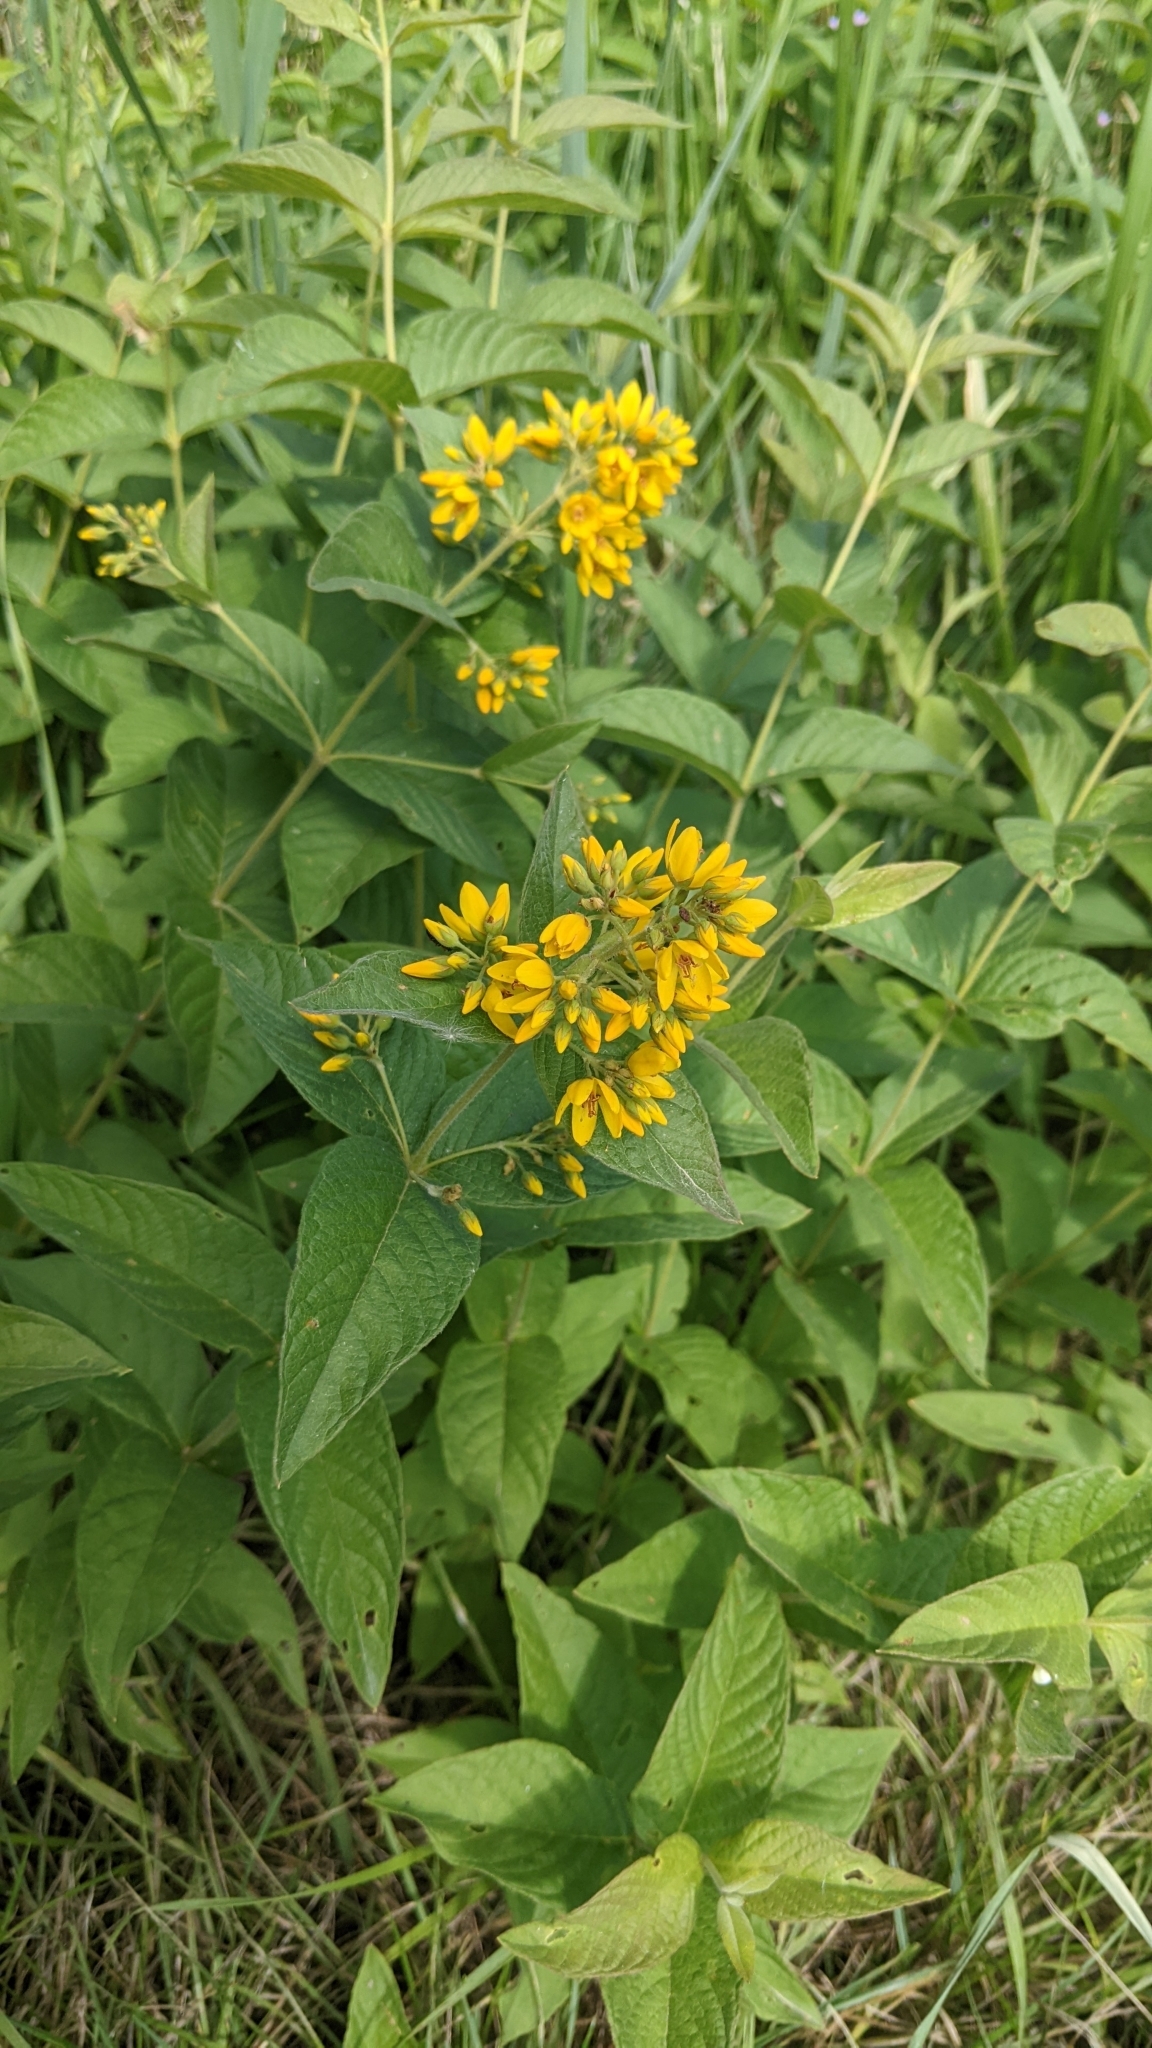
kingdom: Plantae
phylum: Tracheophyta
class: Magnoliopsida
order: Ericales
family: Primulaceae
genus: Lysimachia
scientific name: Lysimachia vulgaris
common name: Yellow loosestrife
